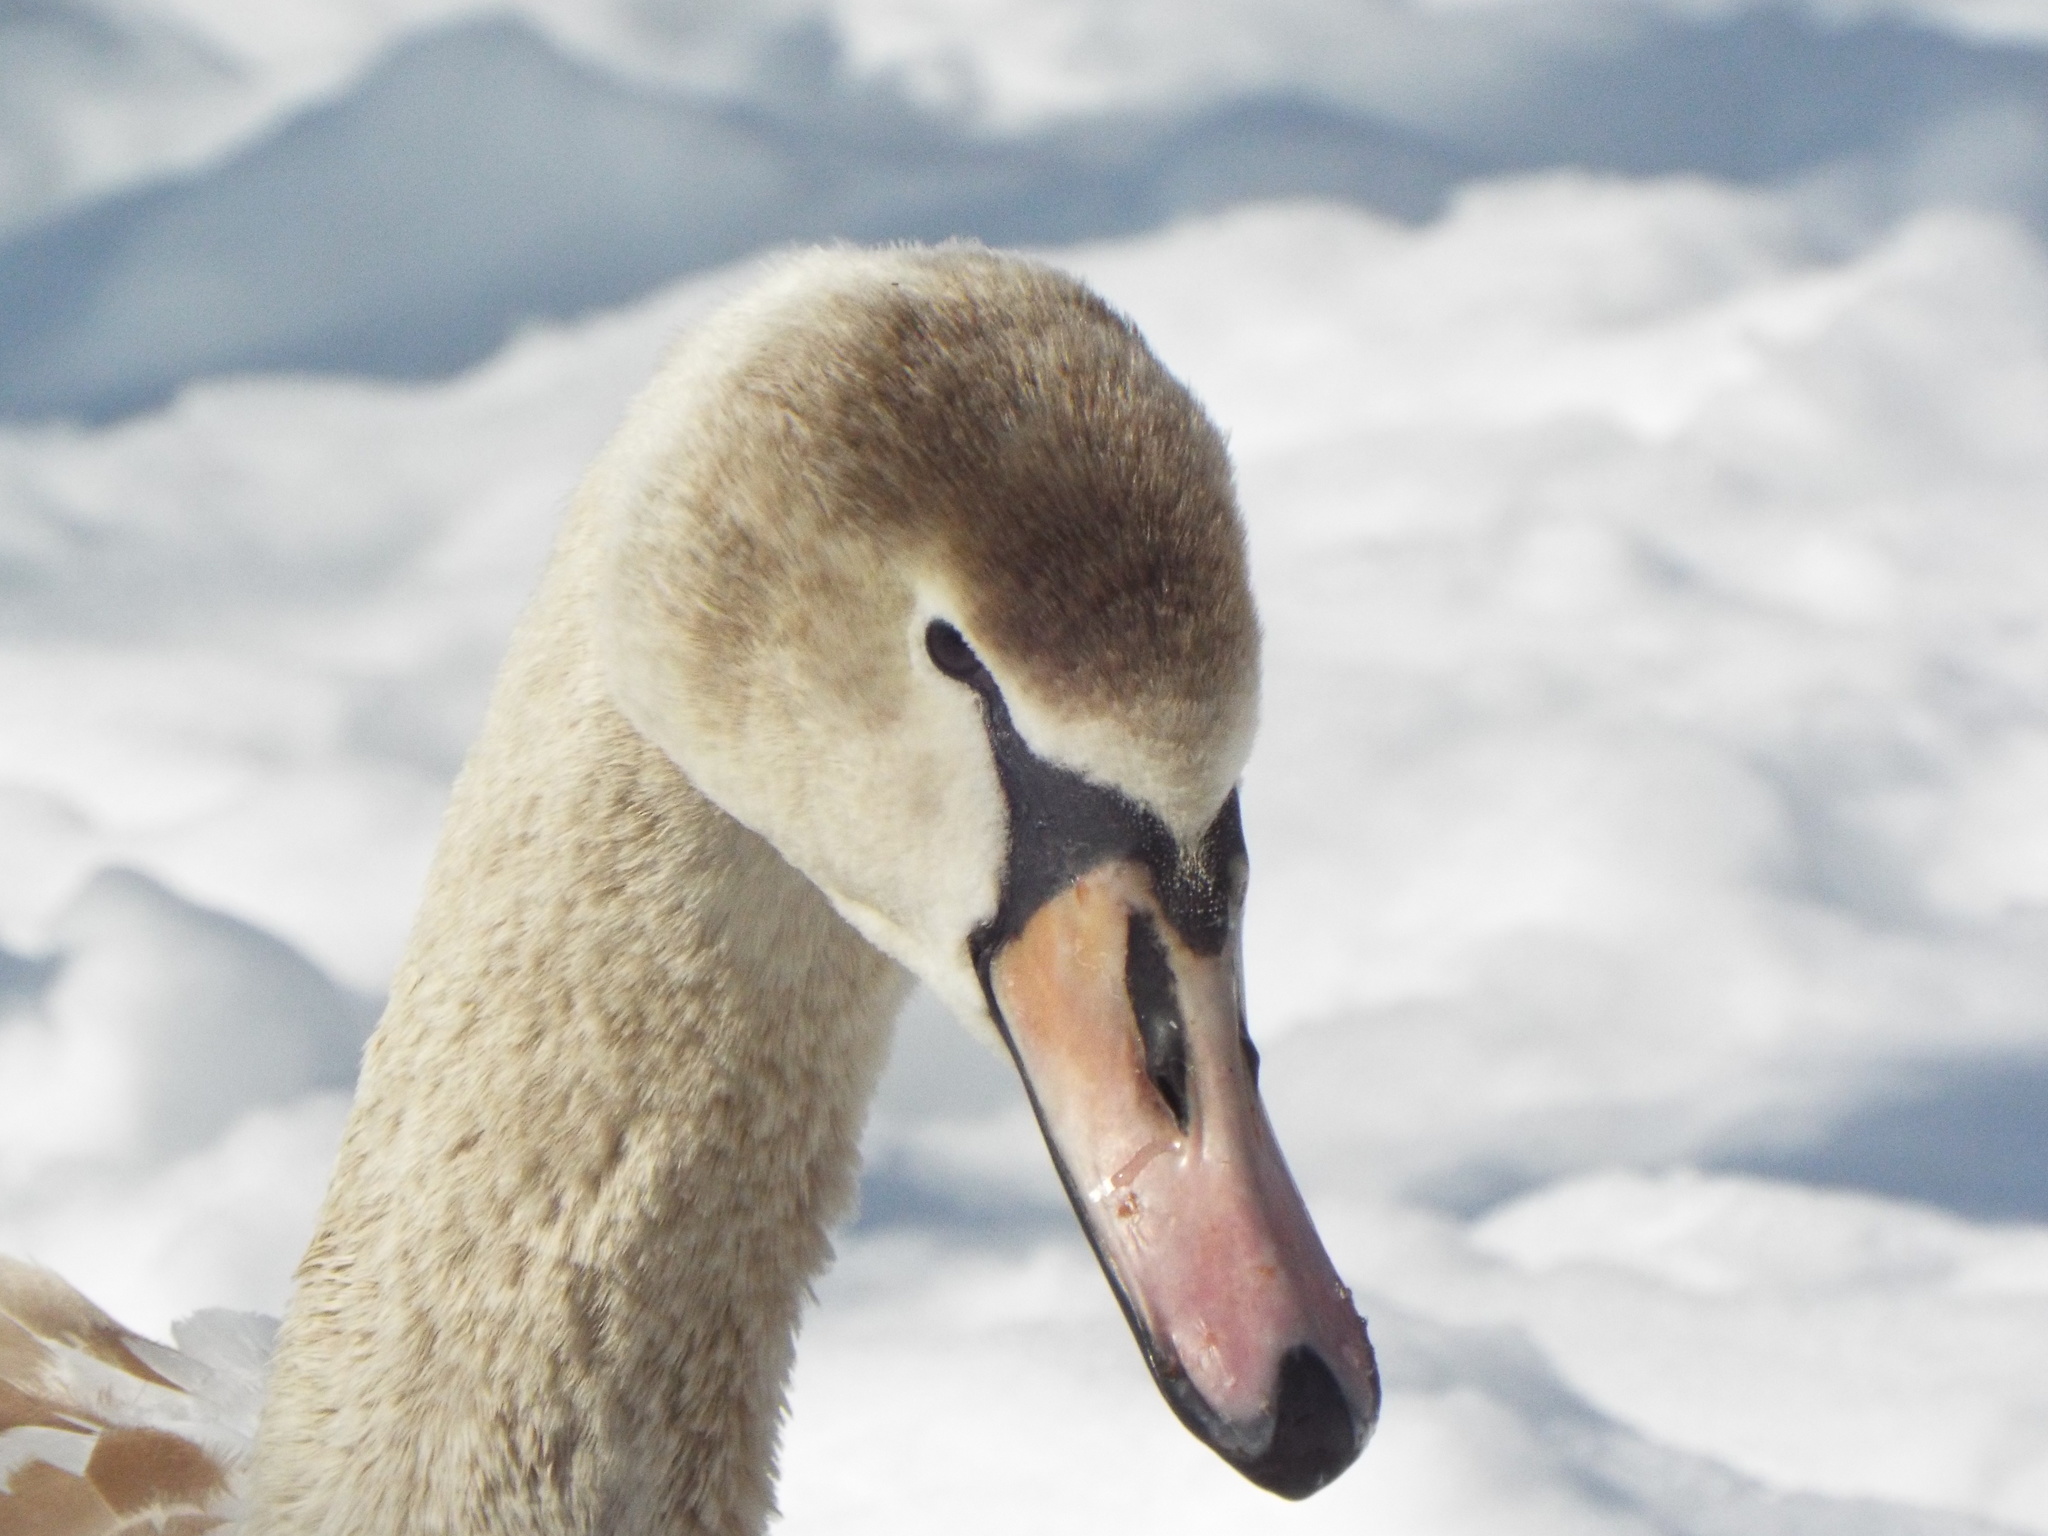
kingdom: Animalia
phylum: Chordata
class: Aves
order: Anseriformes
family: Anatidae
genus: Cygnus
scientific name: Cygnus olor
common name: Mute swan
